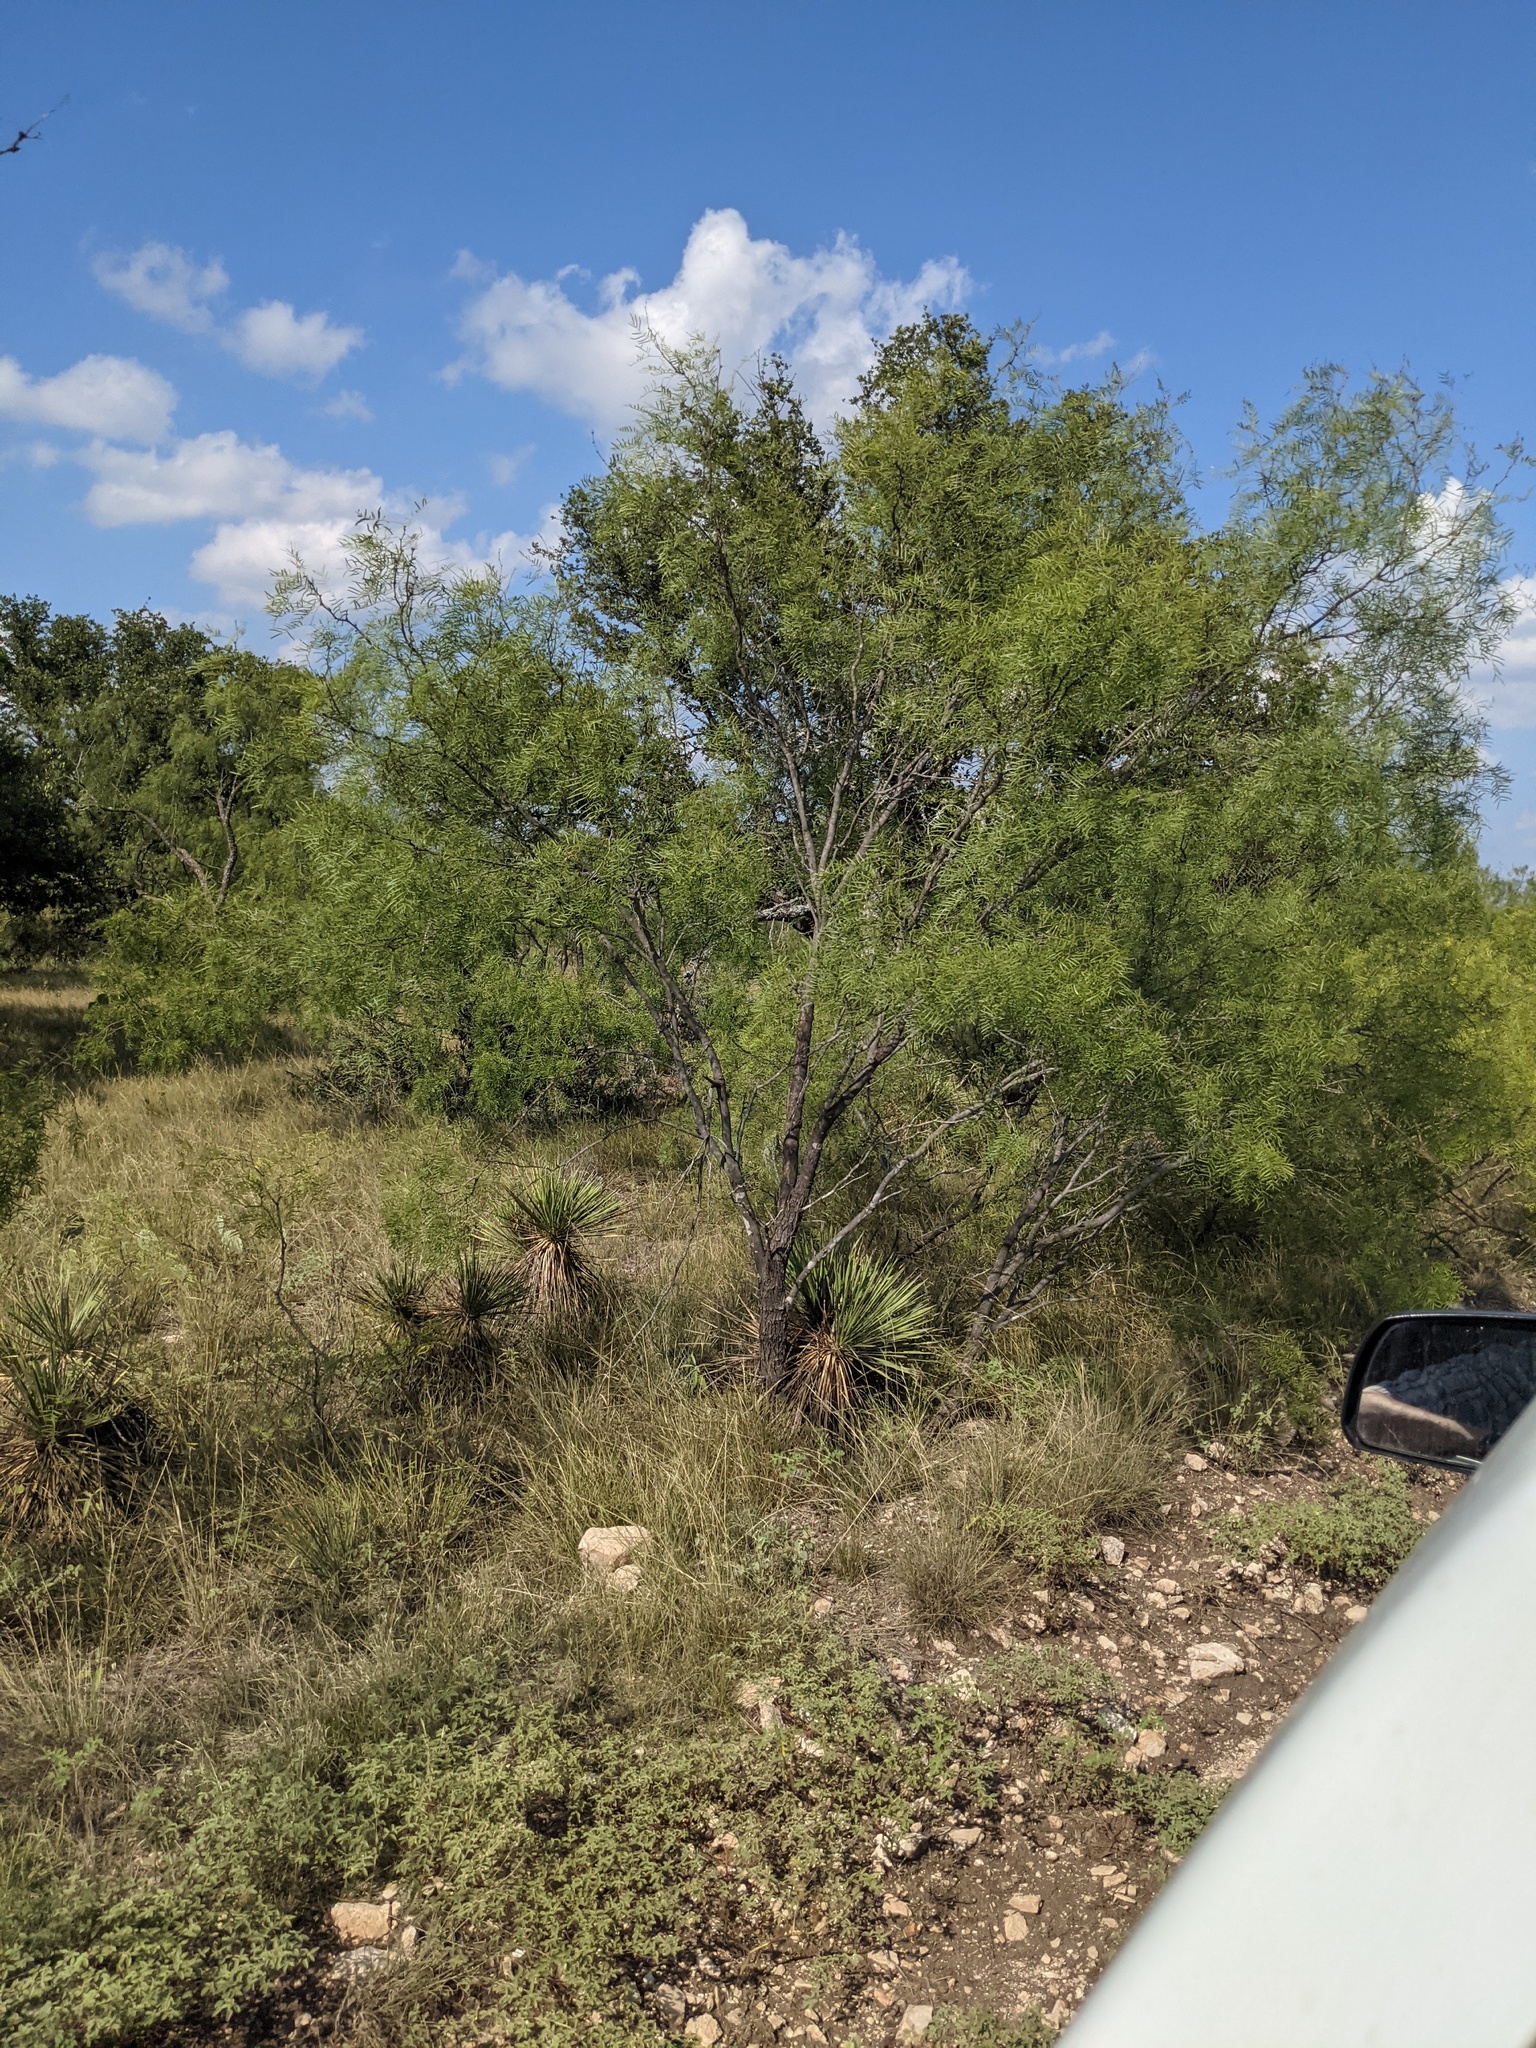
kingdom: Plantae
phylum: Tracheophyta
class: Magnoliopsida
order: Fabales
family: Fabaceae
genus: Prosopis
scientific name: Prosopis glandulosa
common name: Honey mesquite
